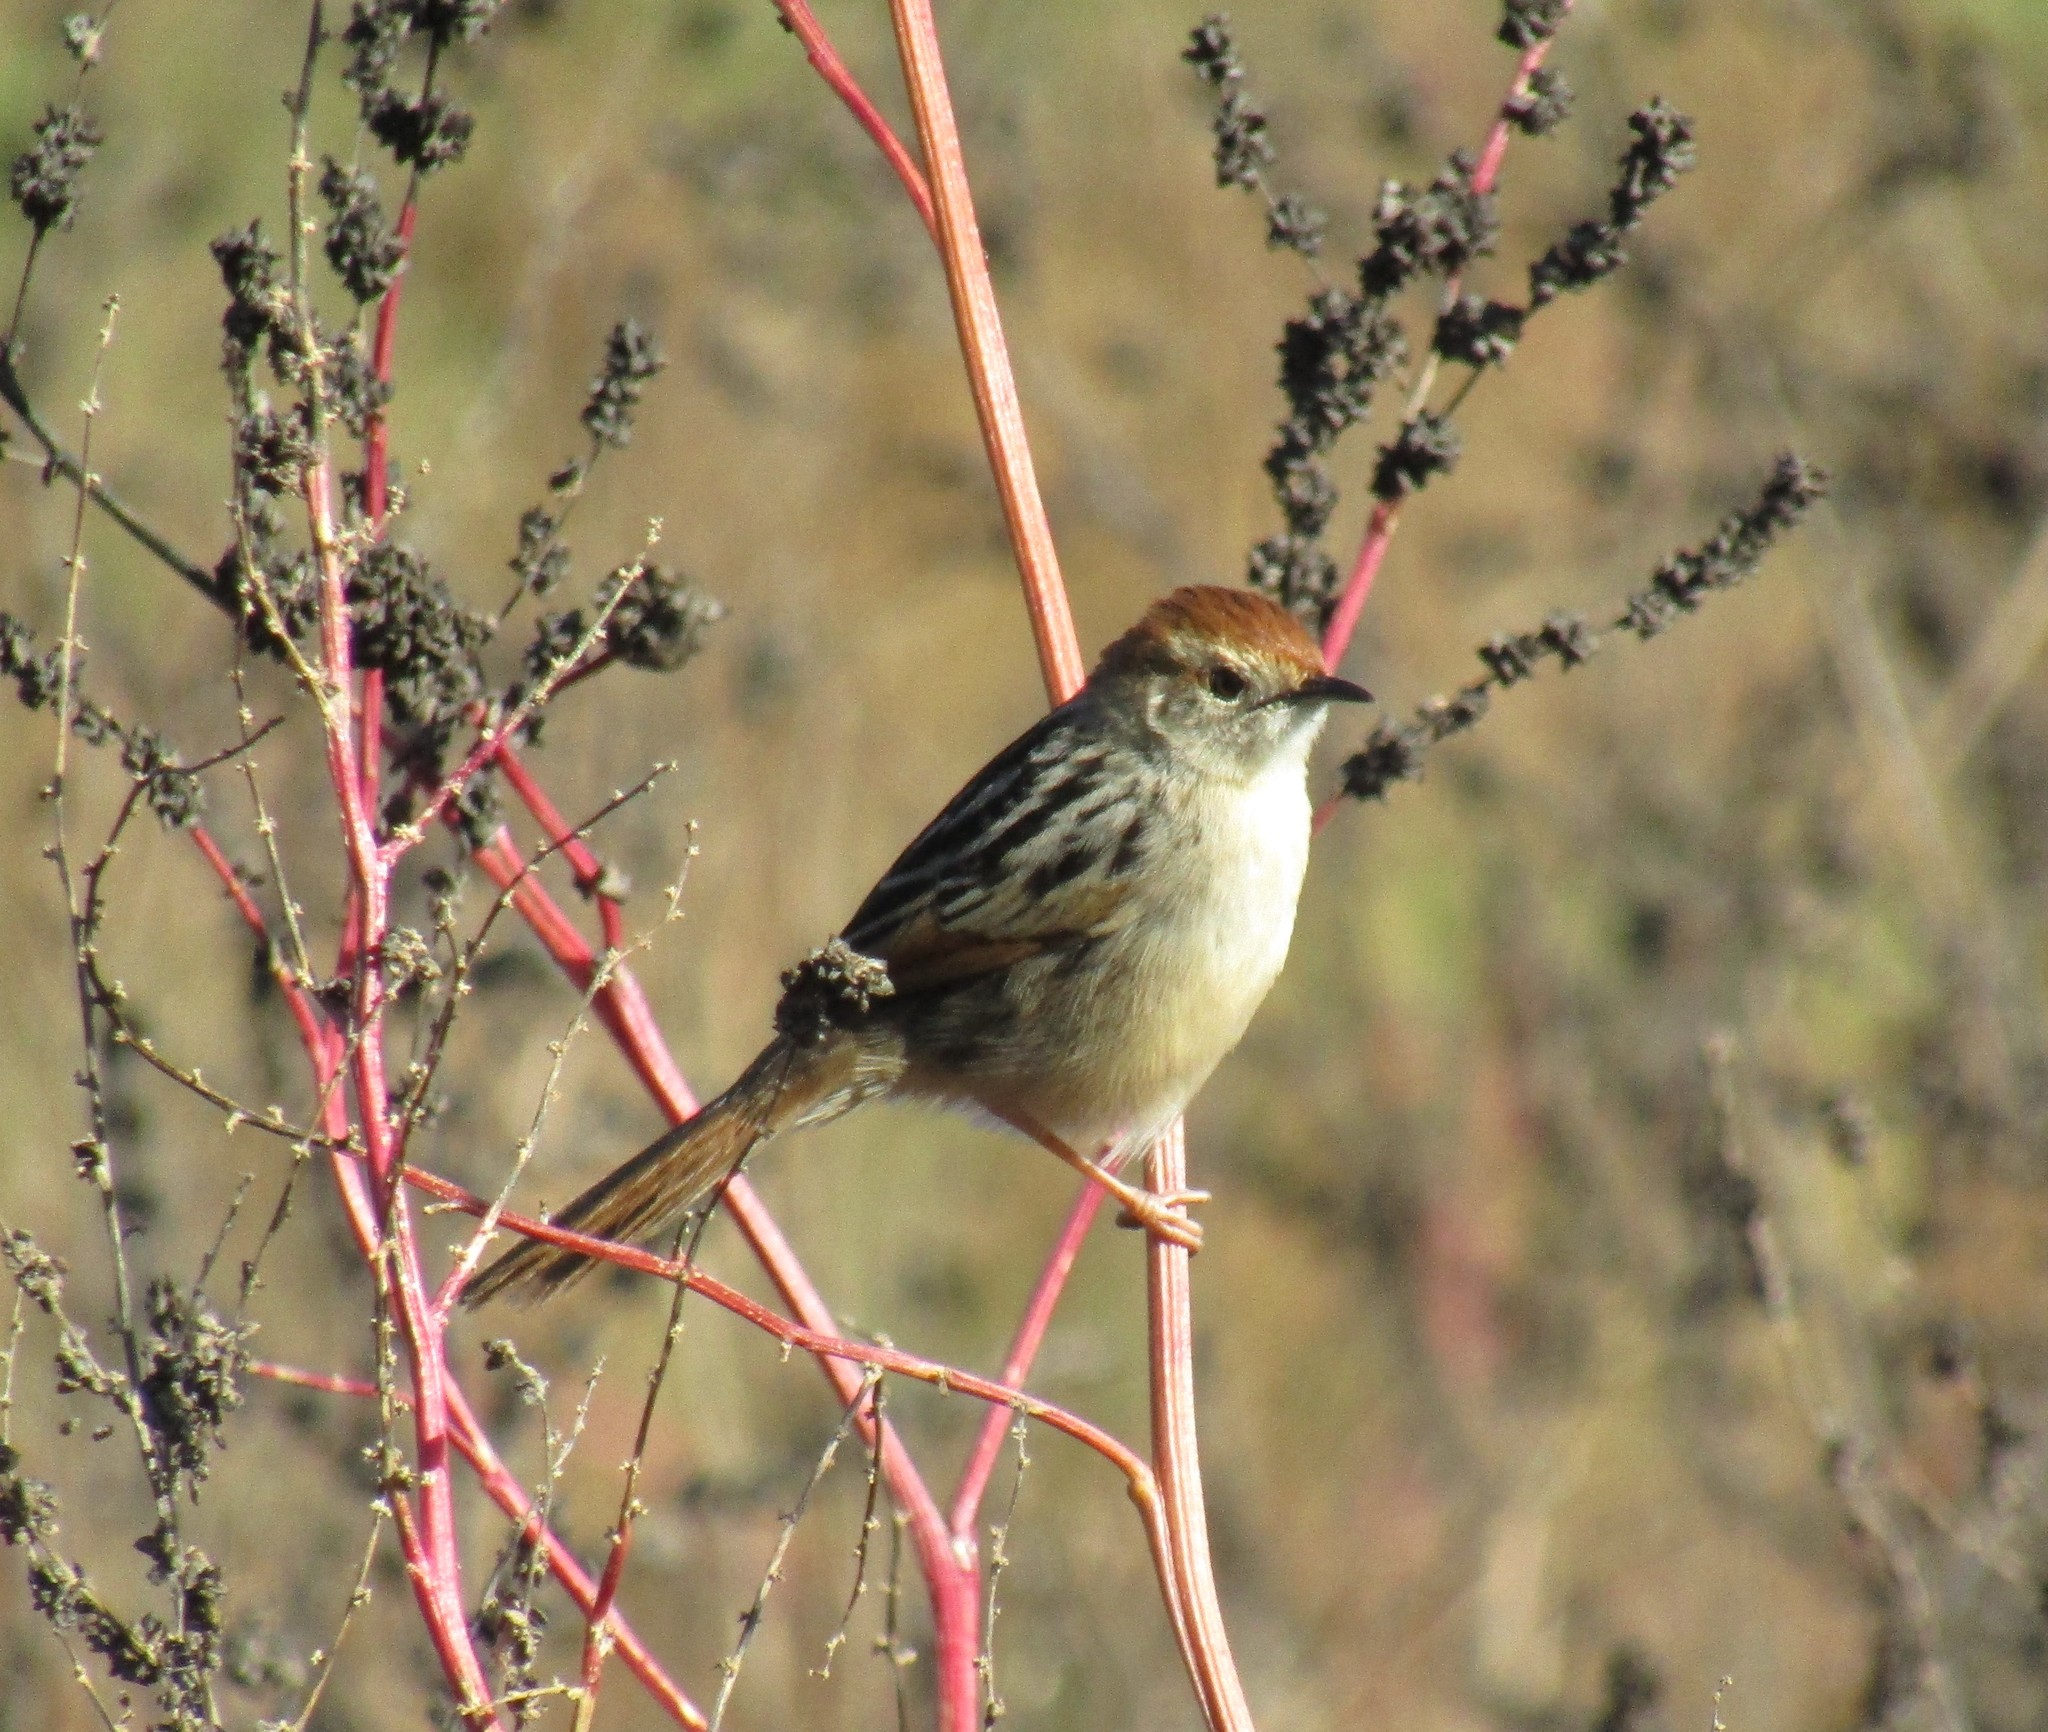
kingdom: Animalia
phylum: Chordata
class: Aves
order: Passeriformes
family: Cisticolidae
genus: Cisticola
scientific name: Cisticola tinniens
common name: Levaillant's cisticola
